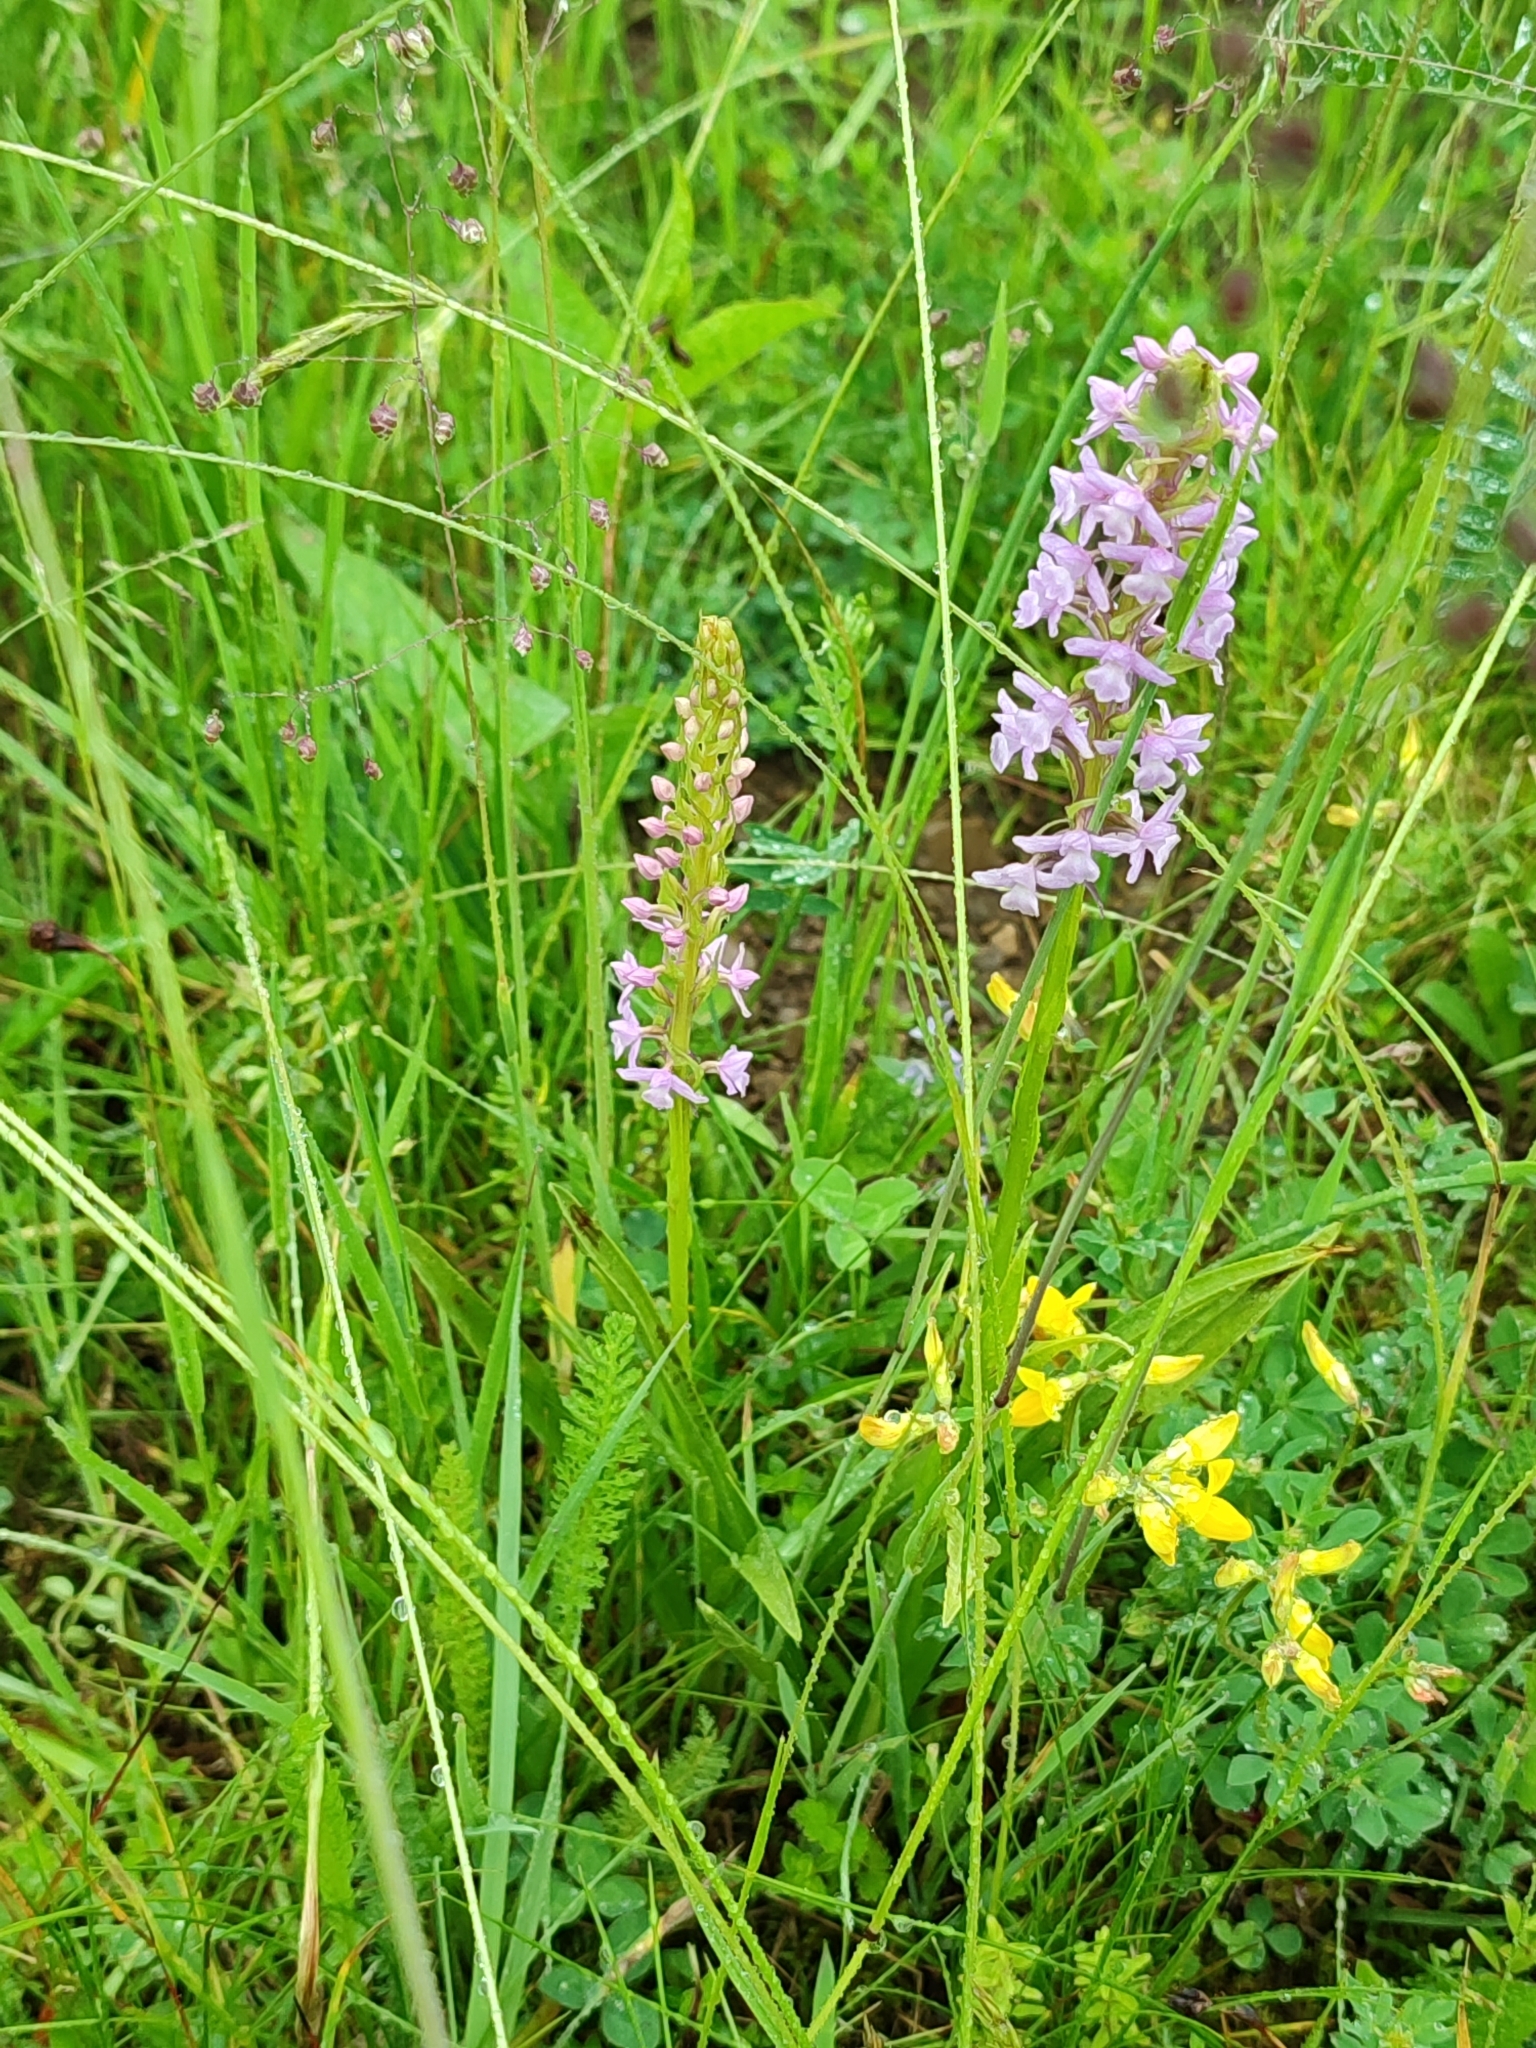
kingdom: Plantae
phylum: Tracheophyta
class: Liliopsida
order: Asparagales
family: Orchidaceae
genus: Gymnadenia
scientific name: Gymnadenia conopsea
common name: Fragrant orchid
